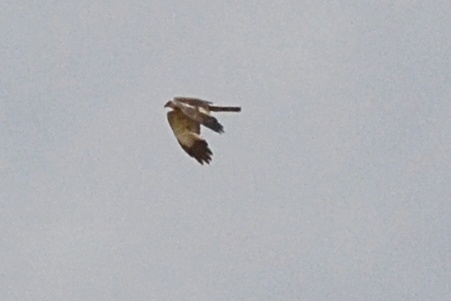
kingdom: Animalia
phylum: Chordata
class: Aves
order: Accipitriformes
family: Accipitridae
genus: Circus
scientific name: Circus aeruginosus
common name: Western marsh harrier
